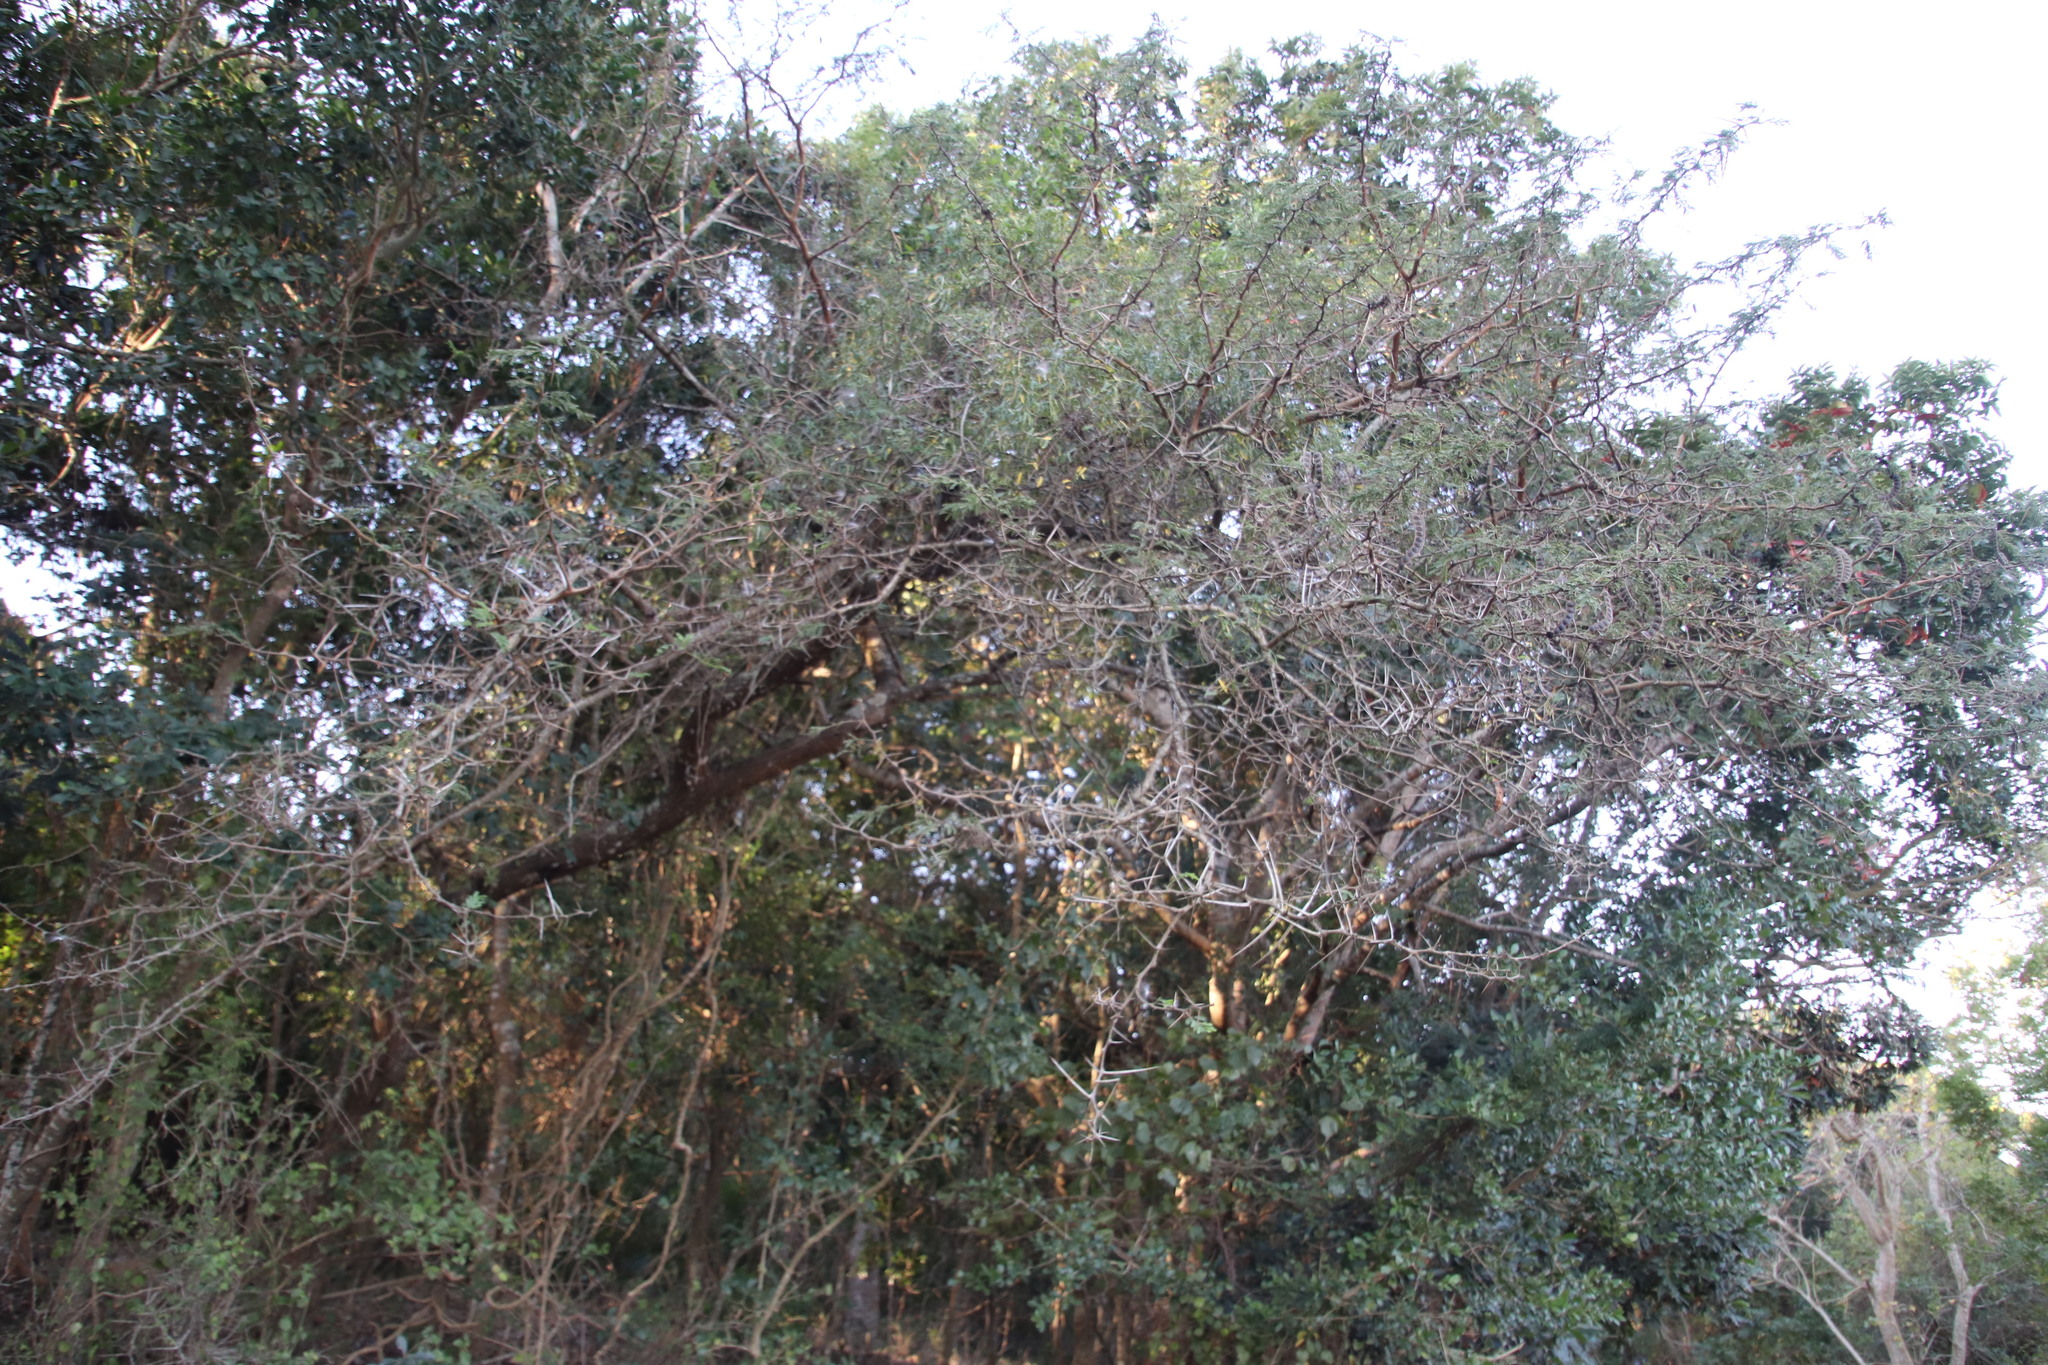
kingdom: Plantae
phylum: Tracheophyta
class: Magnoliopsida
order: Fabales
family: Fabaceae
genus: Vachellia
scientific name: Vachellia nilotica
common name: Arabic gumtree
